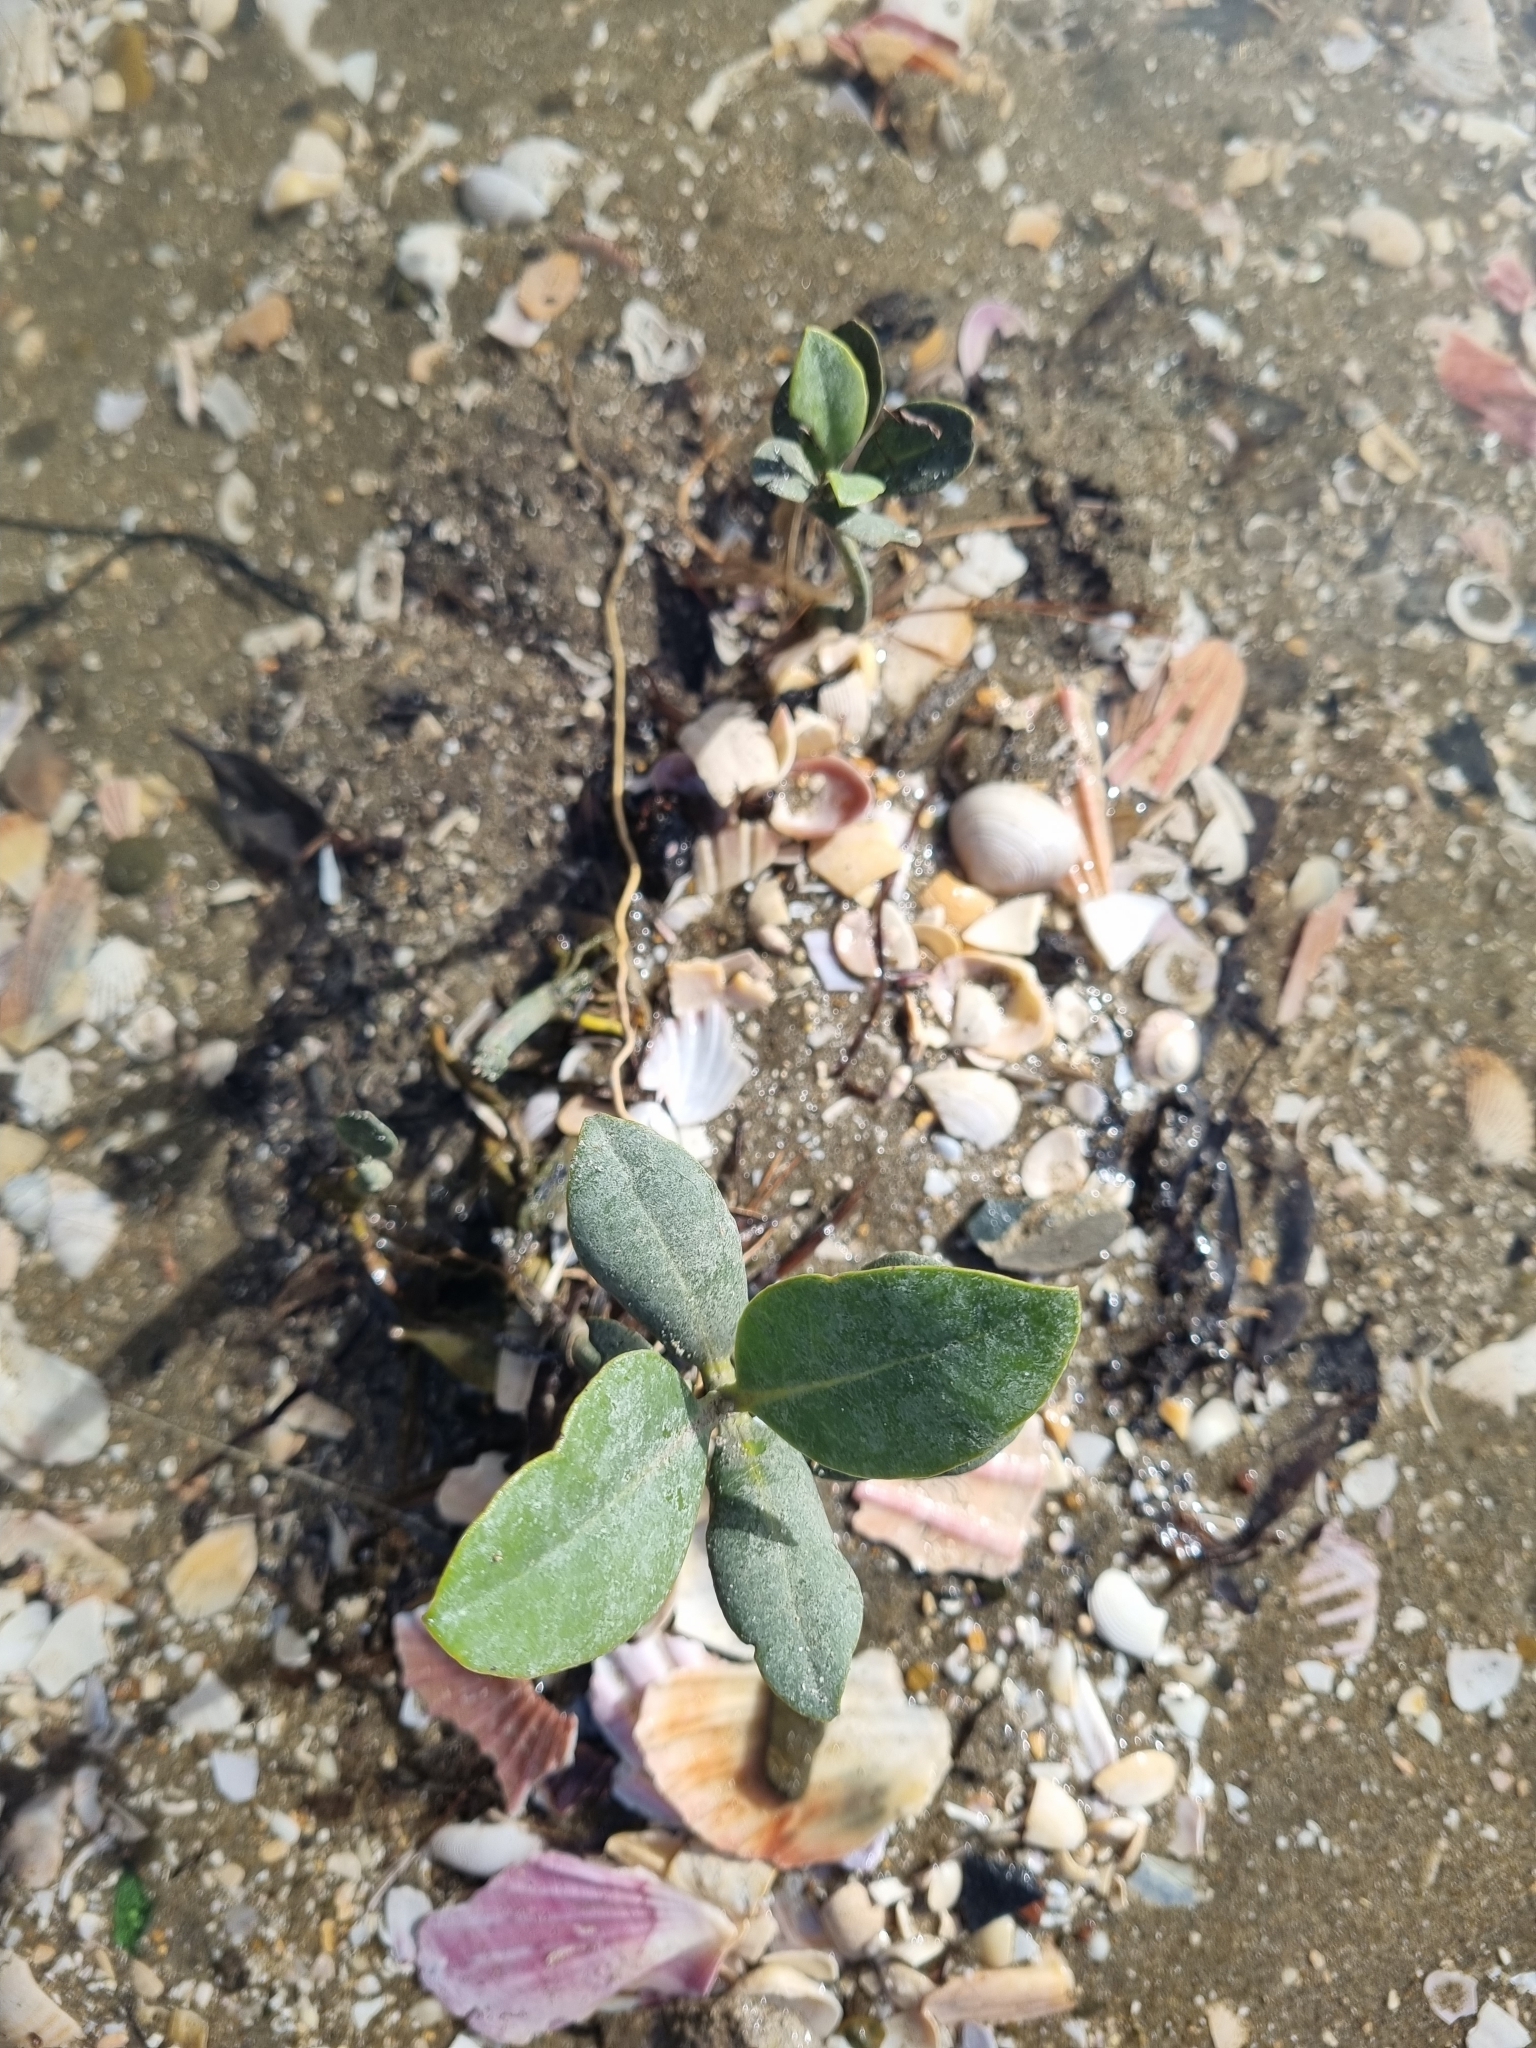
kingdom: Plantae
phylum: Tracheophyta
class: Magnoliopsida
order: Lamiales
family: Acanthaceae
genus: Avicennia
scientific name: Avicennia marina
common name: Gray mangrove
